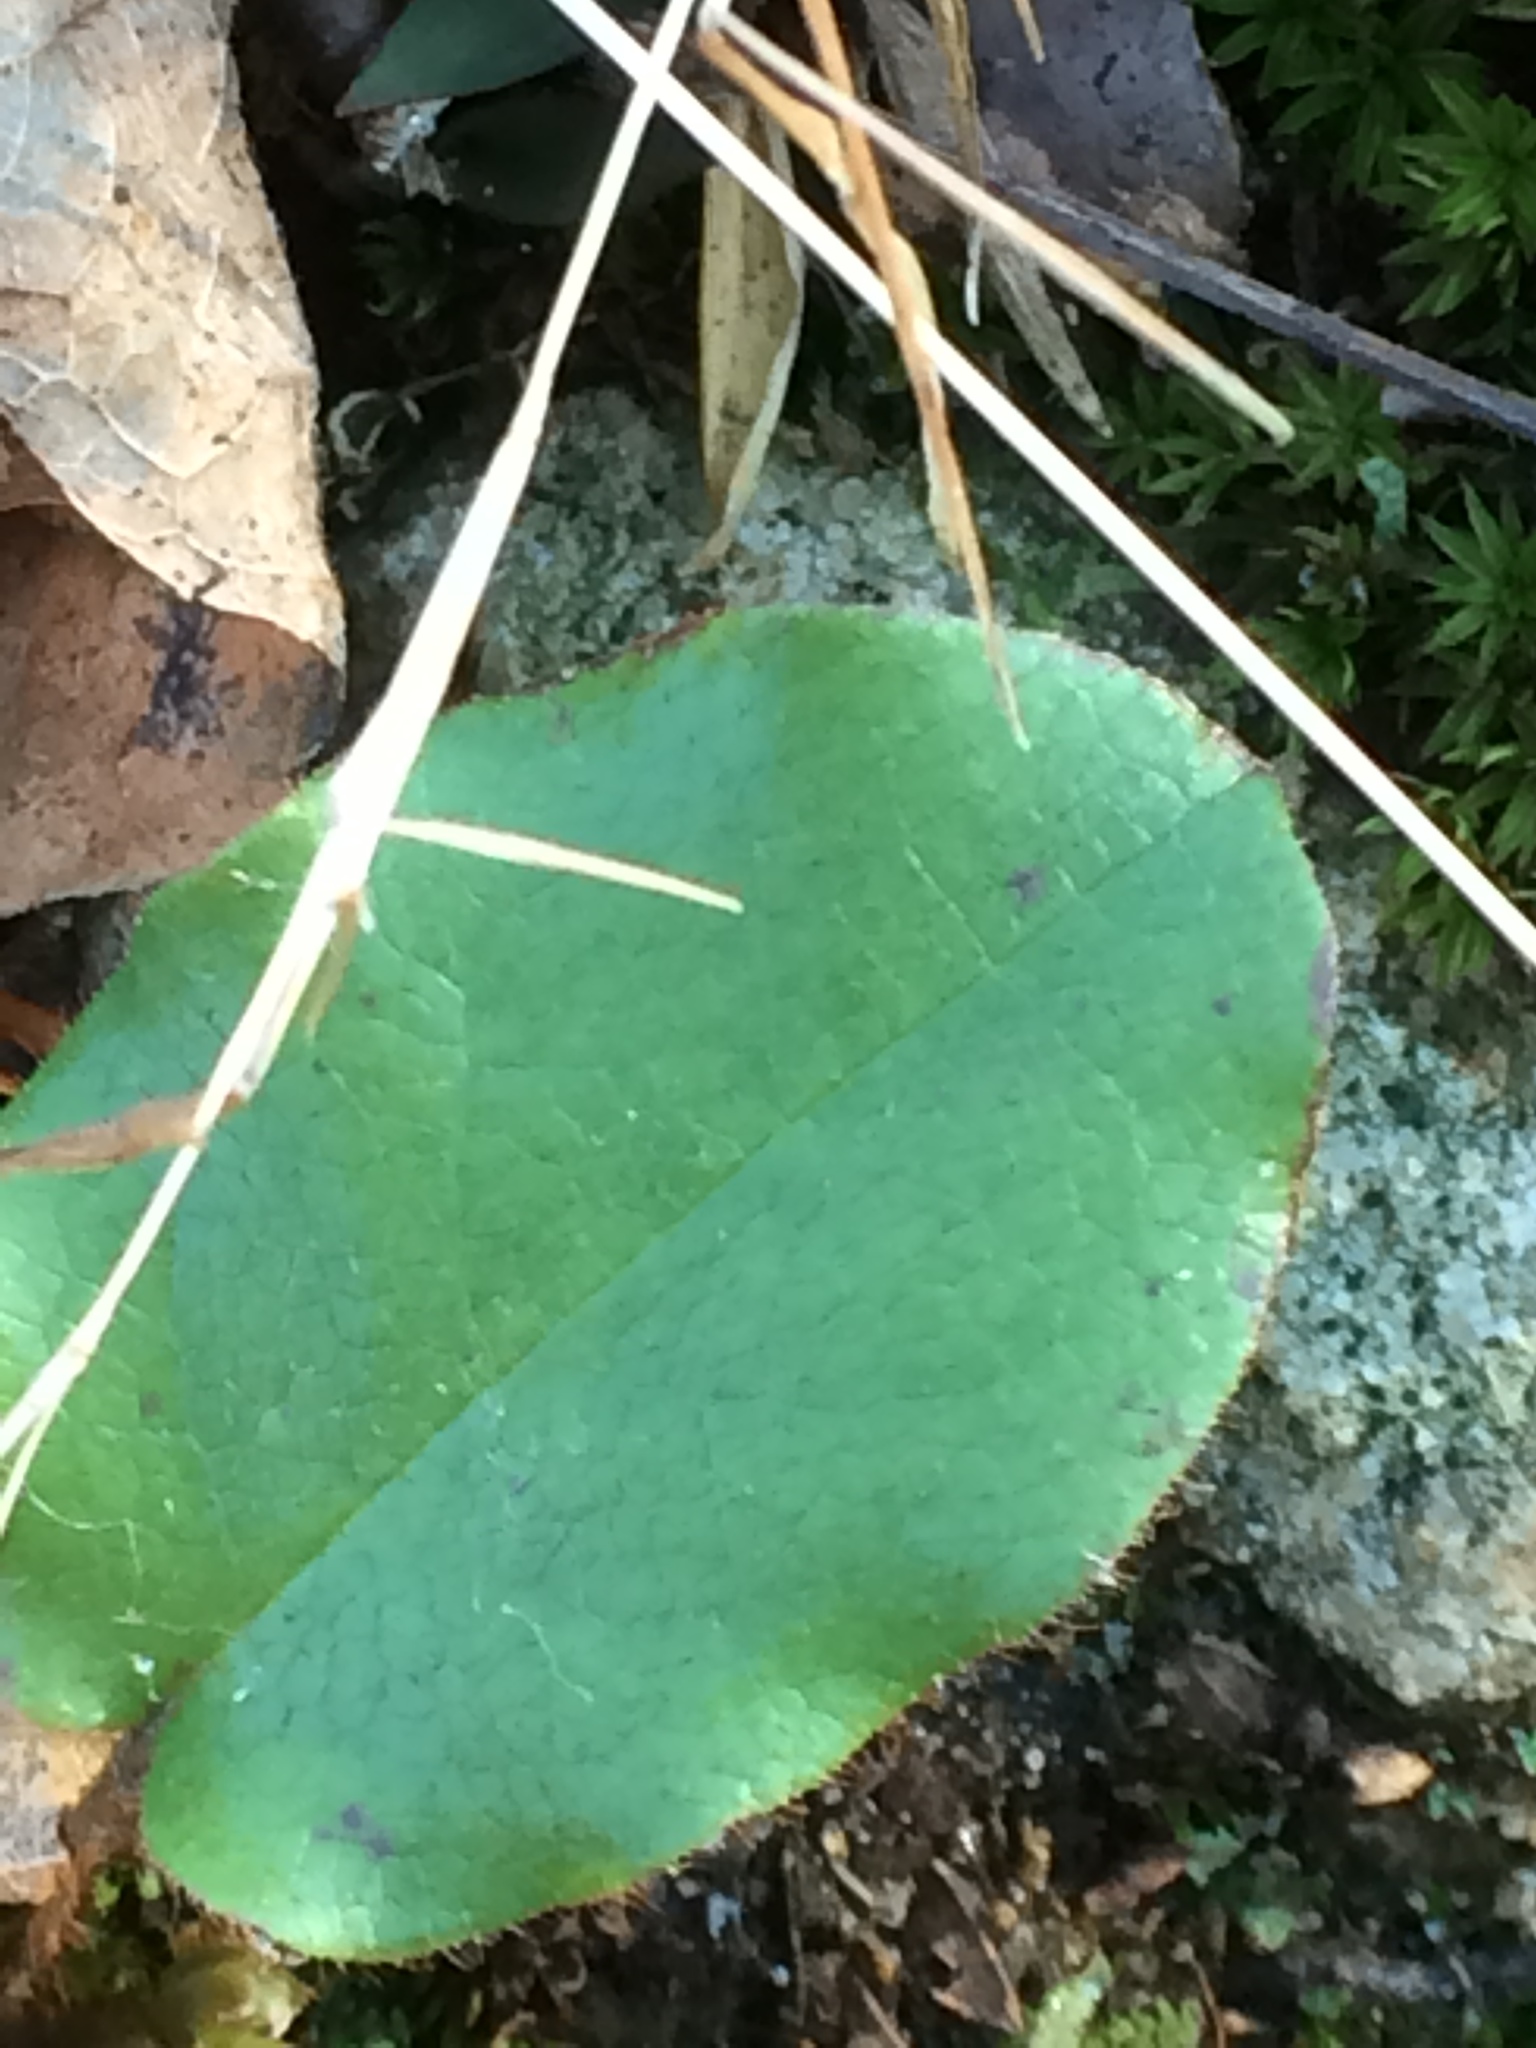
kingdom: Plantae
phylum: Tracheophyta
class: Magnoliopsida
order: Ericales
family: Ericaceae
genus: Epigaea
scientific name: Epigaea repens
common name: Gravelroot
